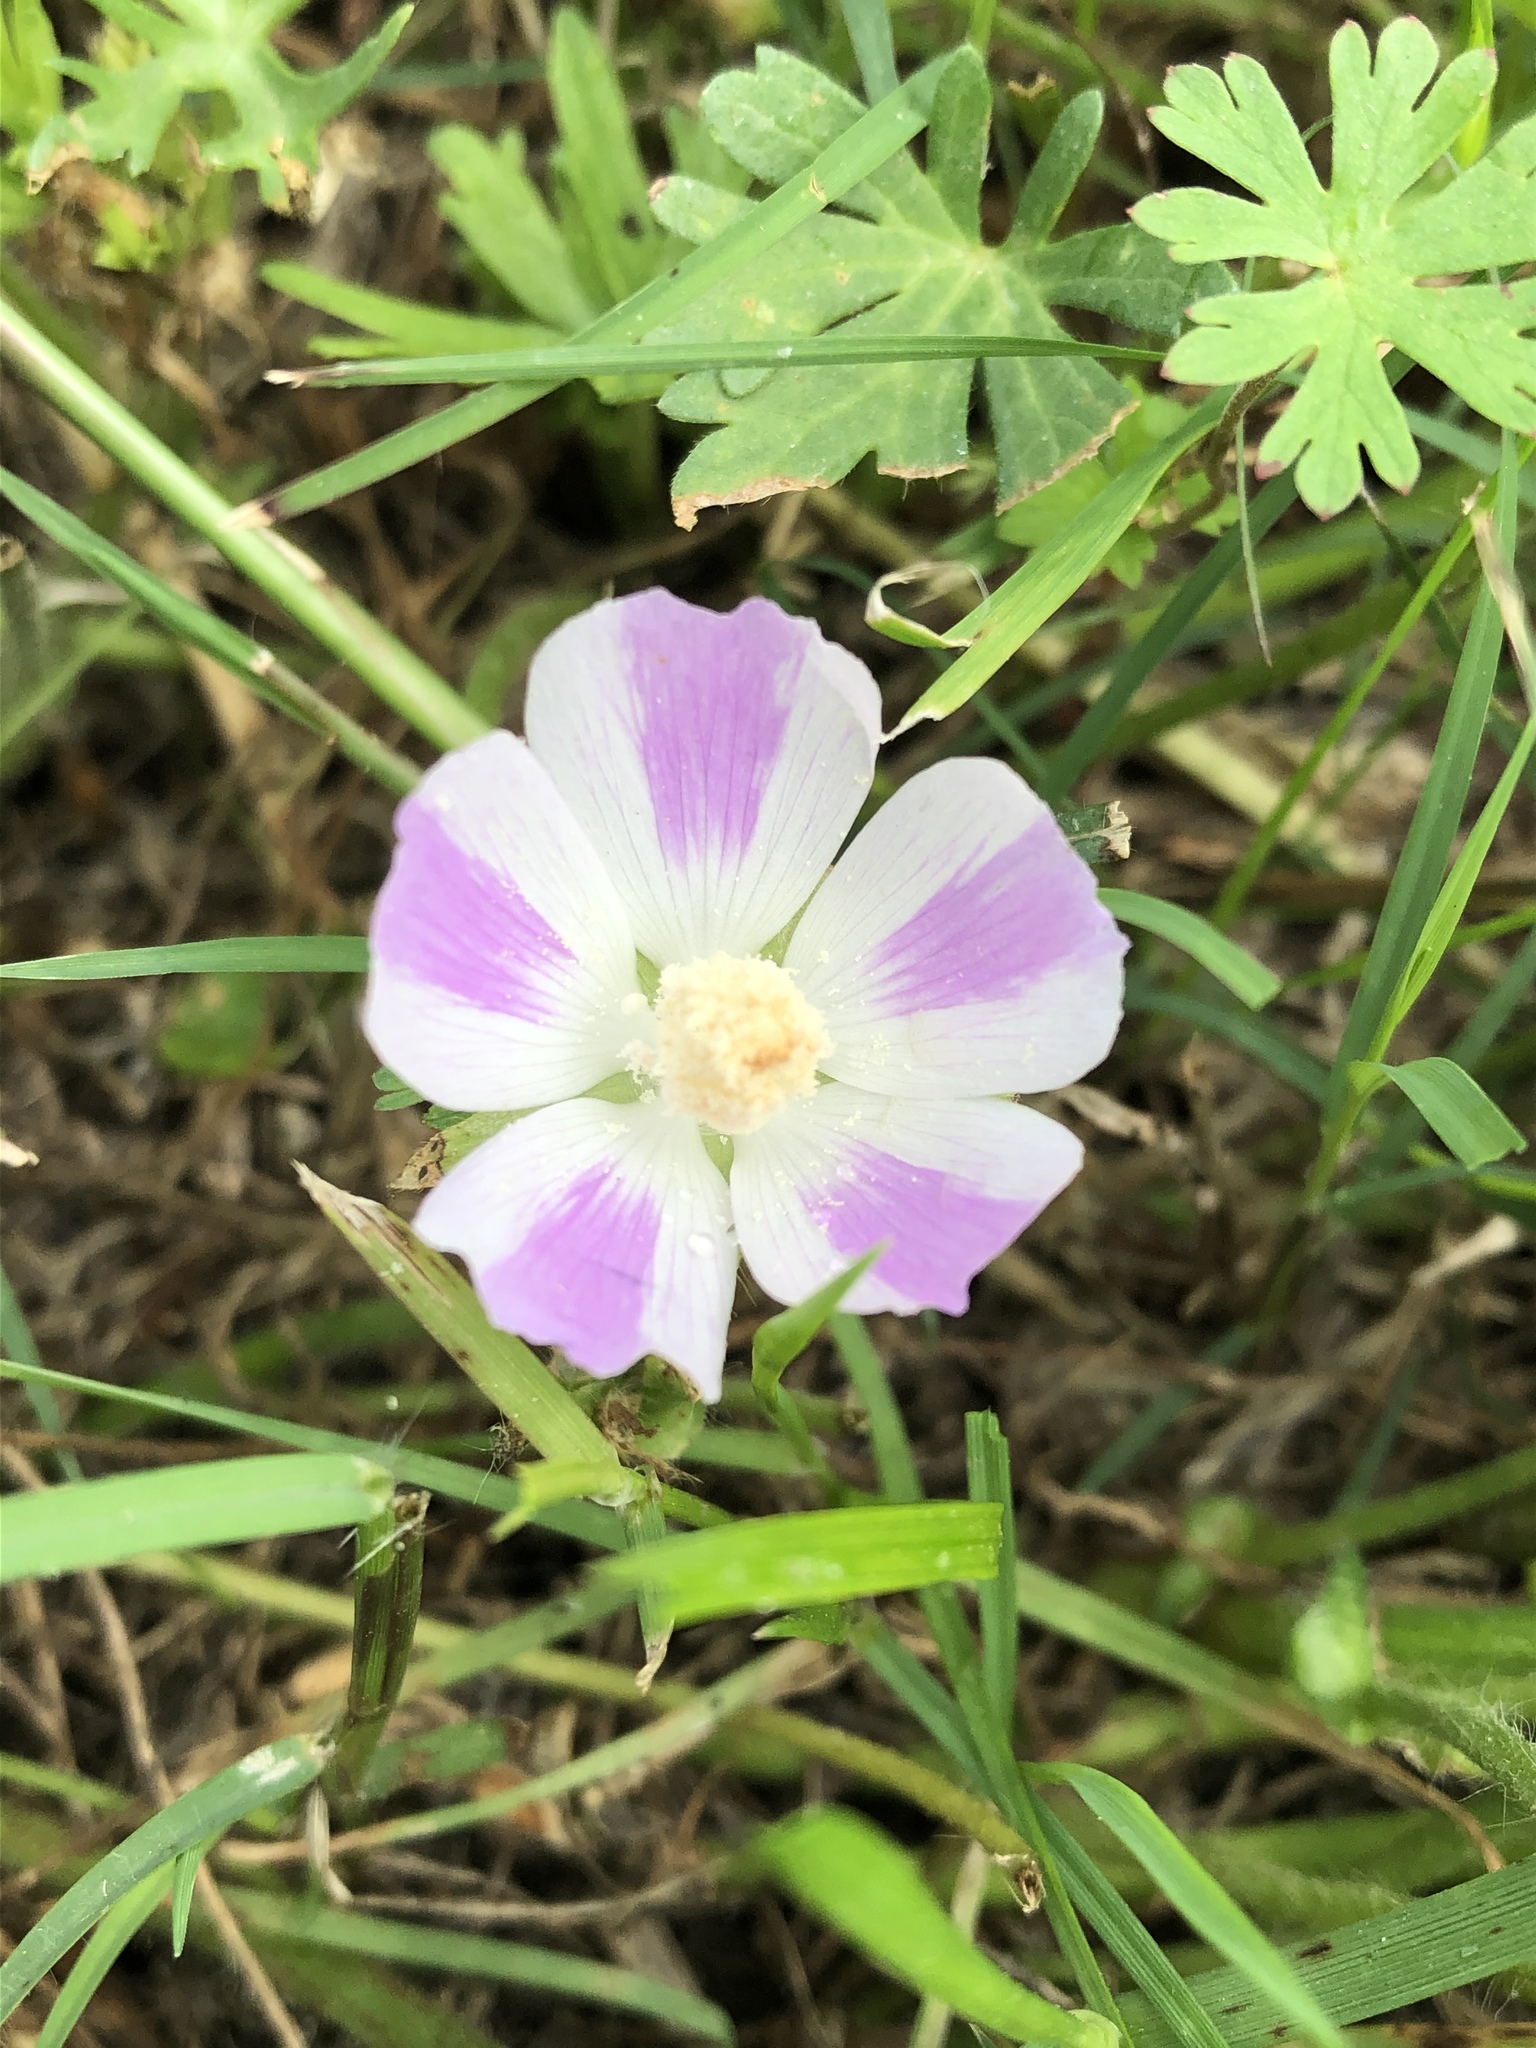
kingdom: Plantae
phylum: Tracheophyta
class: Magnoliopsida
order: Malvales
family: Malvaceae
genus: Callirhoe
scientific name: Callirhoe involucrata
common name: Purple poppy-mallow
